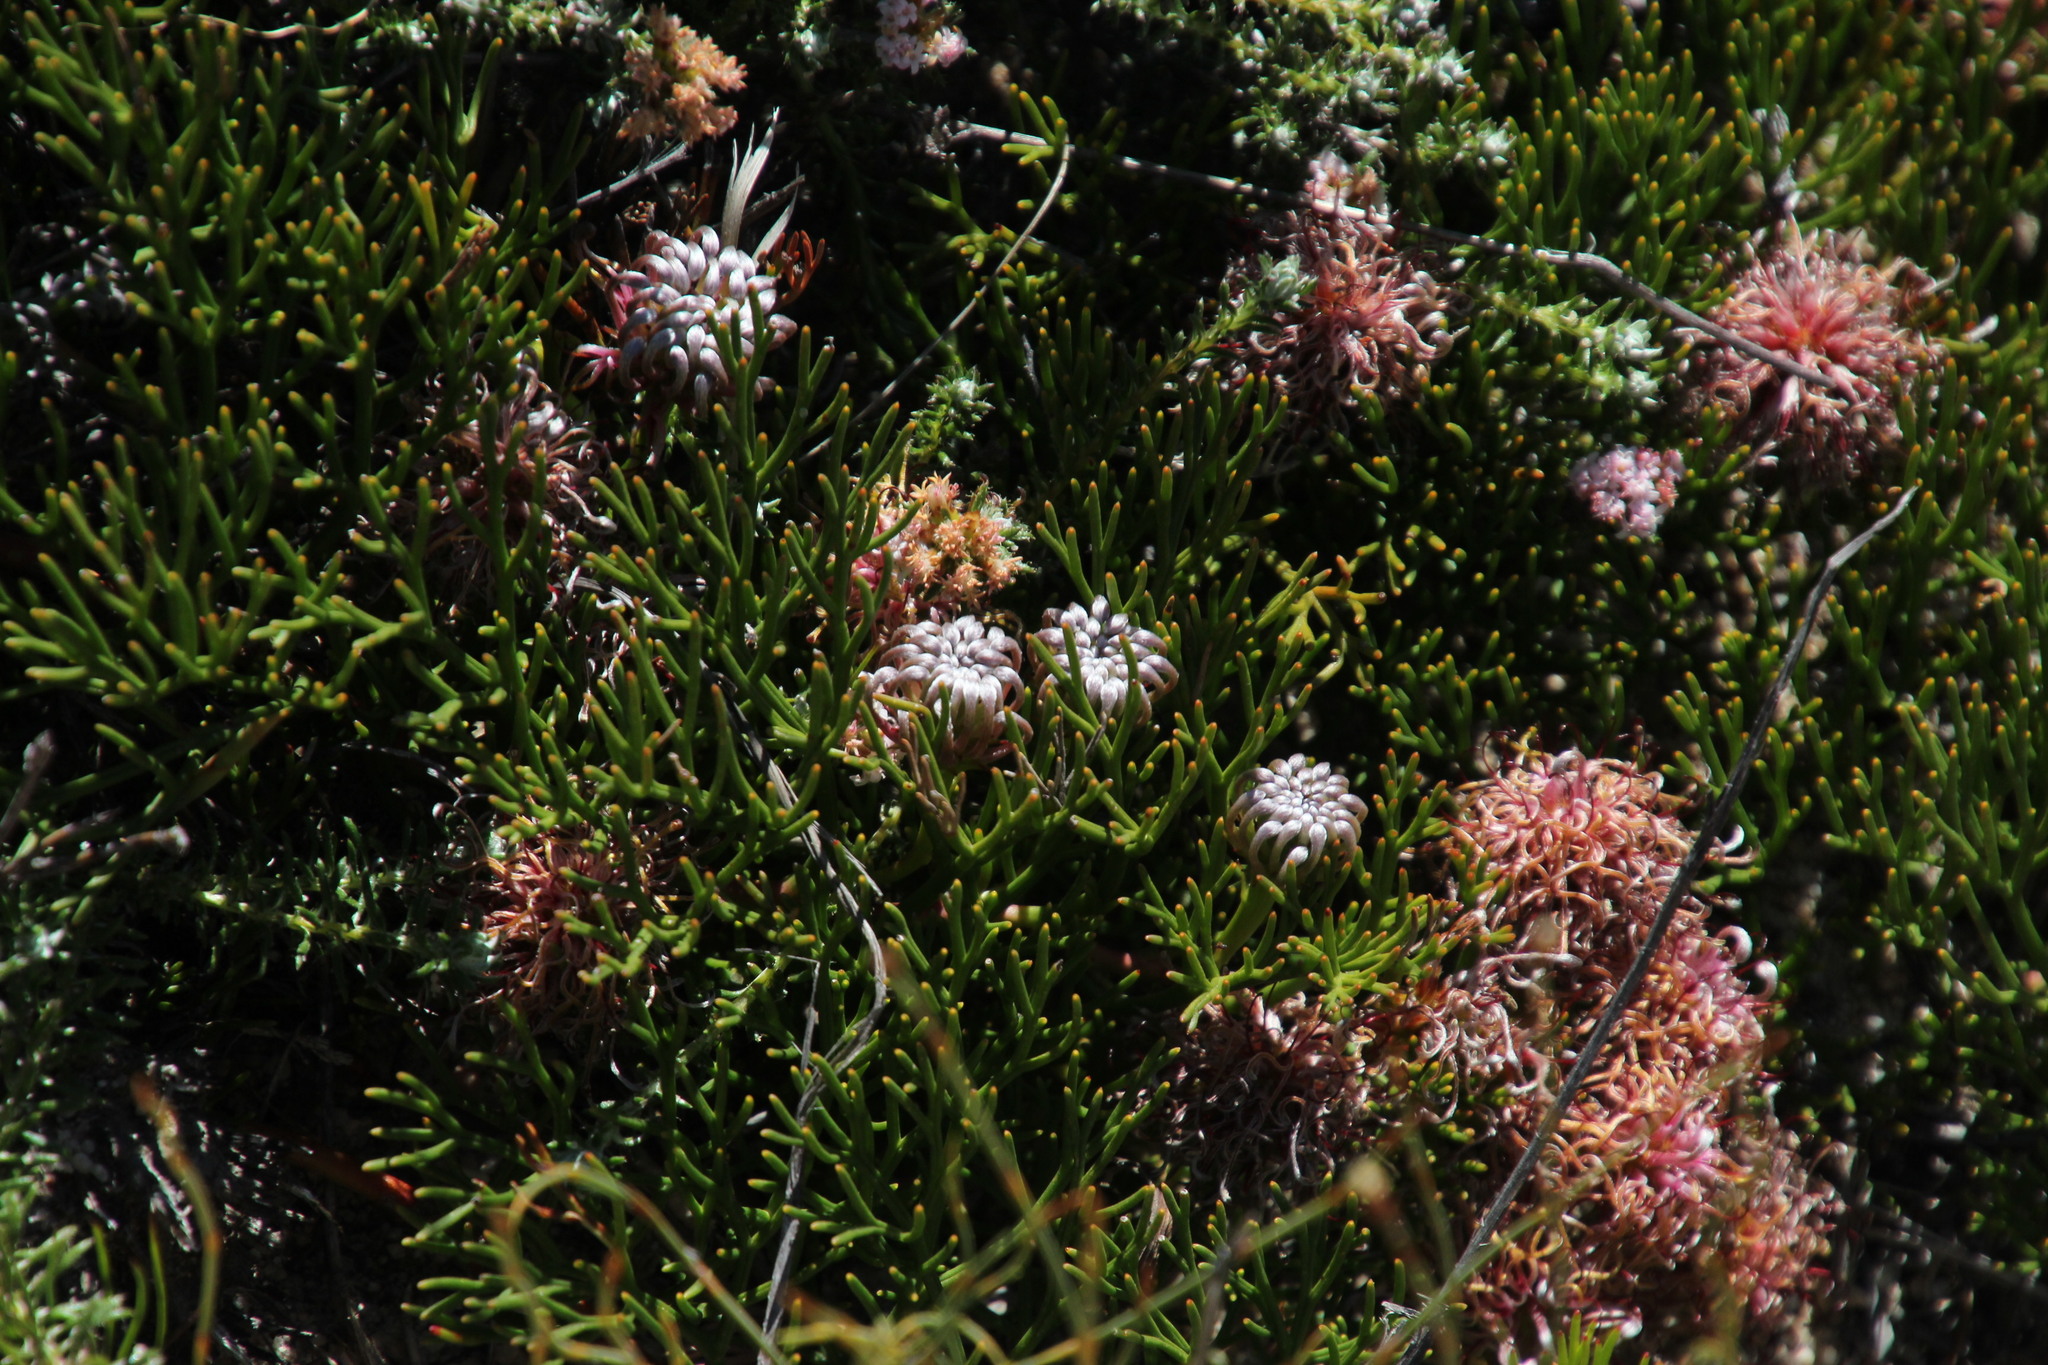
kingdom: Plantae
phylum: Tracheophyta
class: Magnoliopsida
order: Proteales
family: Proteaceae
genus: Serruria
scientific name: Serruria cygnea
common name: Swan spiderhead
